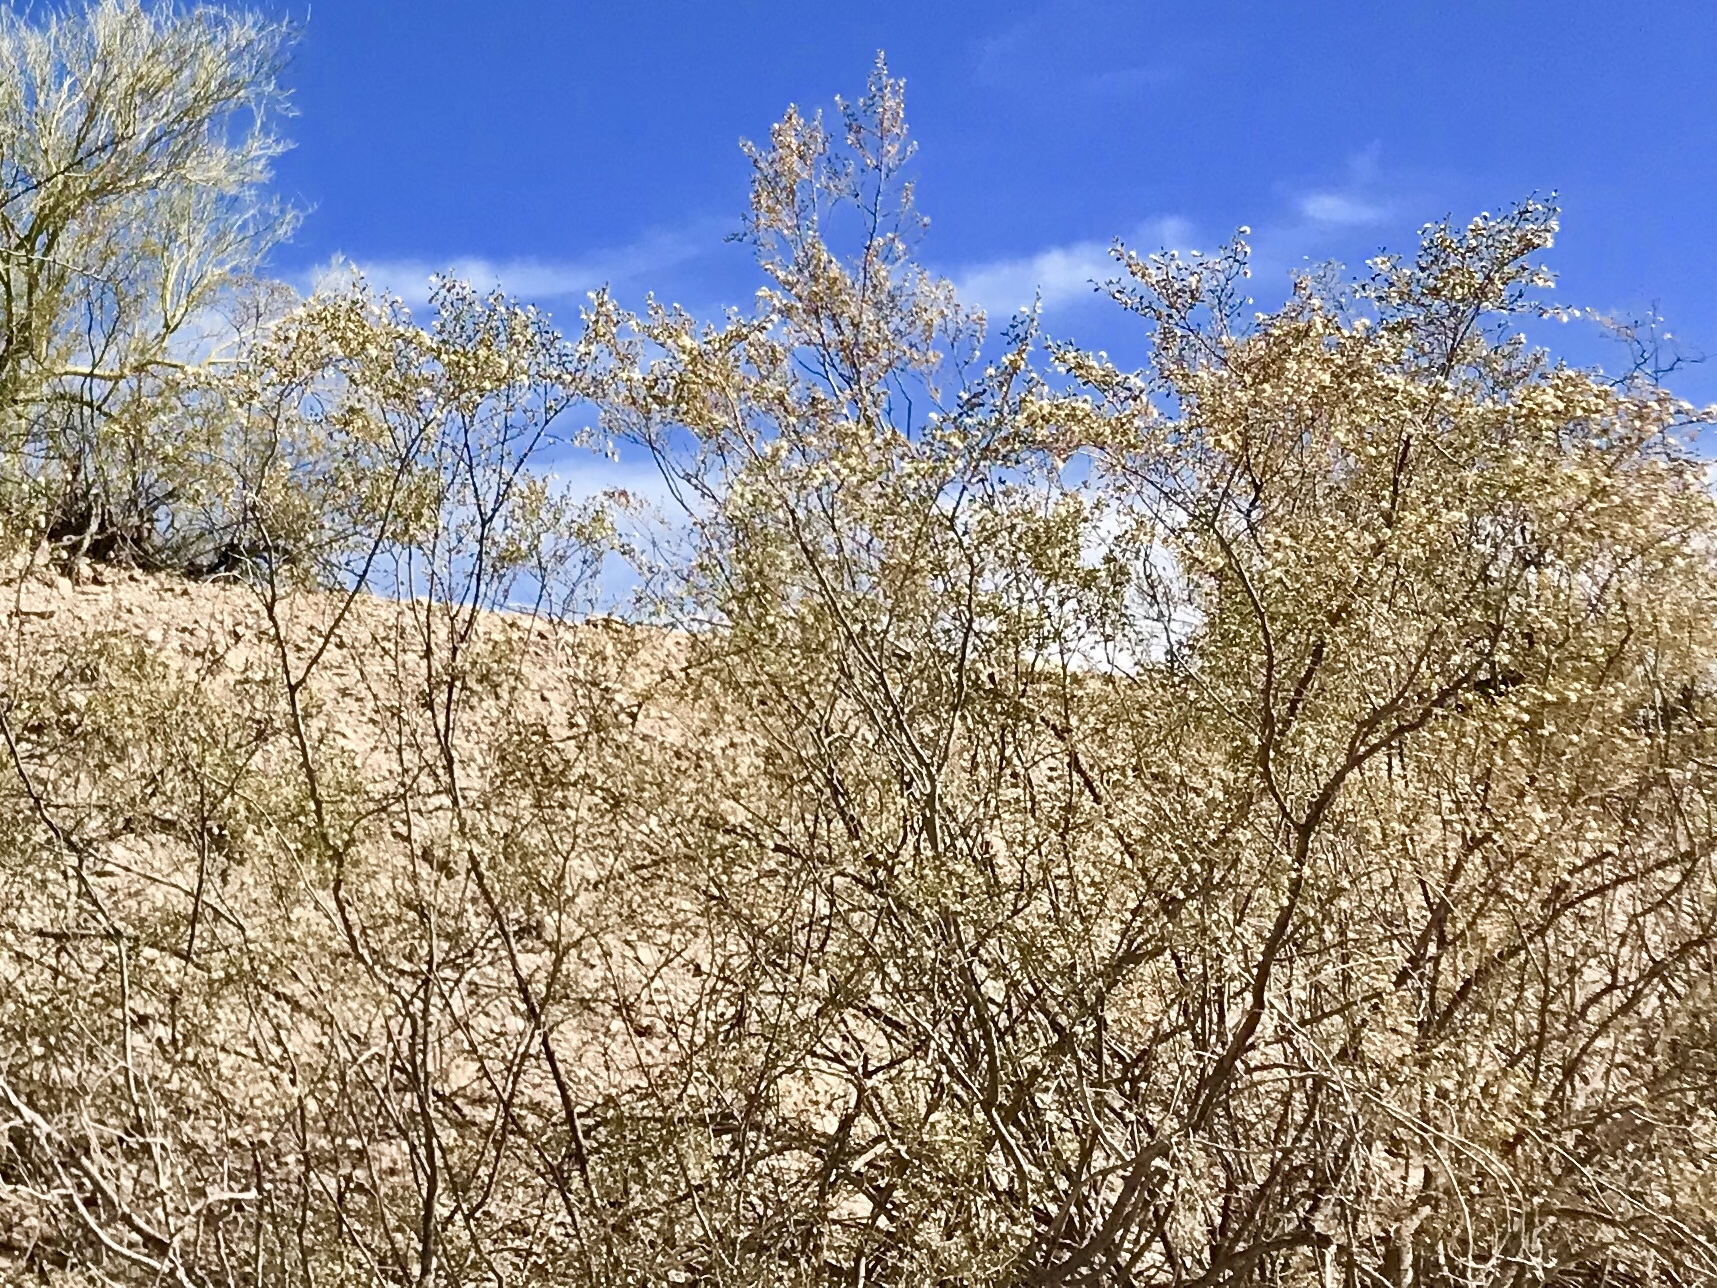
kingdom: Plantae
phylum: Tracheophyta
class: Magnoliopsida
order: Zygophyllales
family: Zygophyllaceae
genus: Larrea
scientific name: Larrea tridentata
